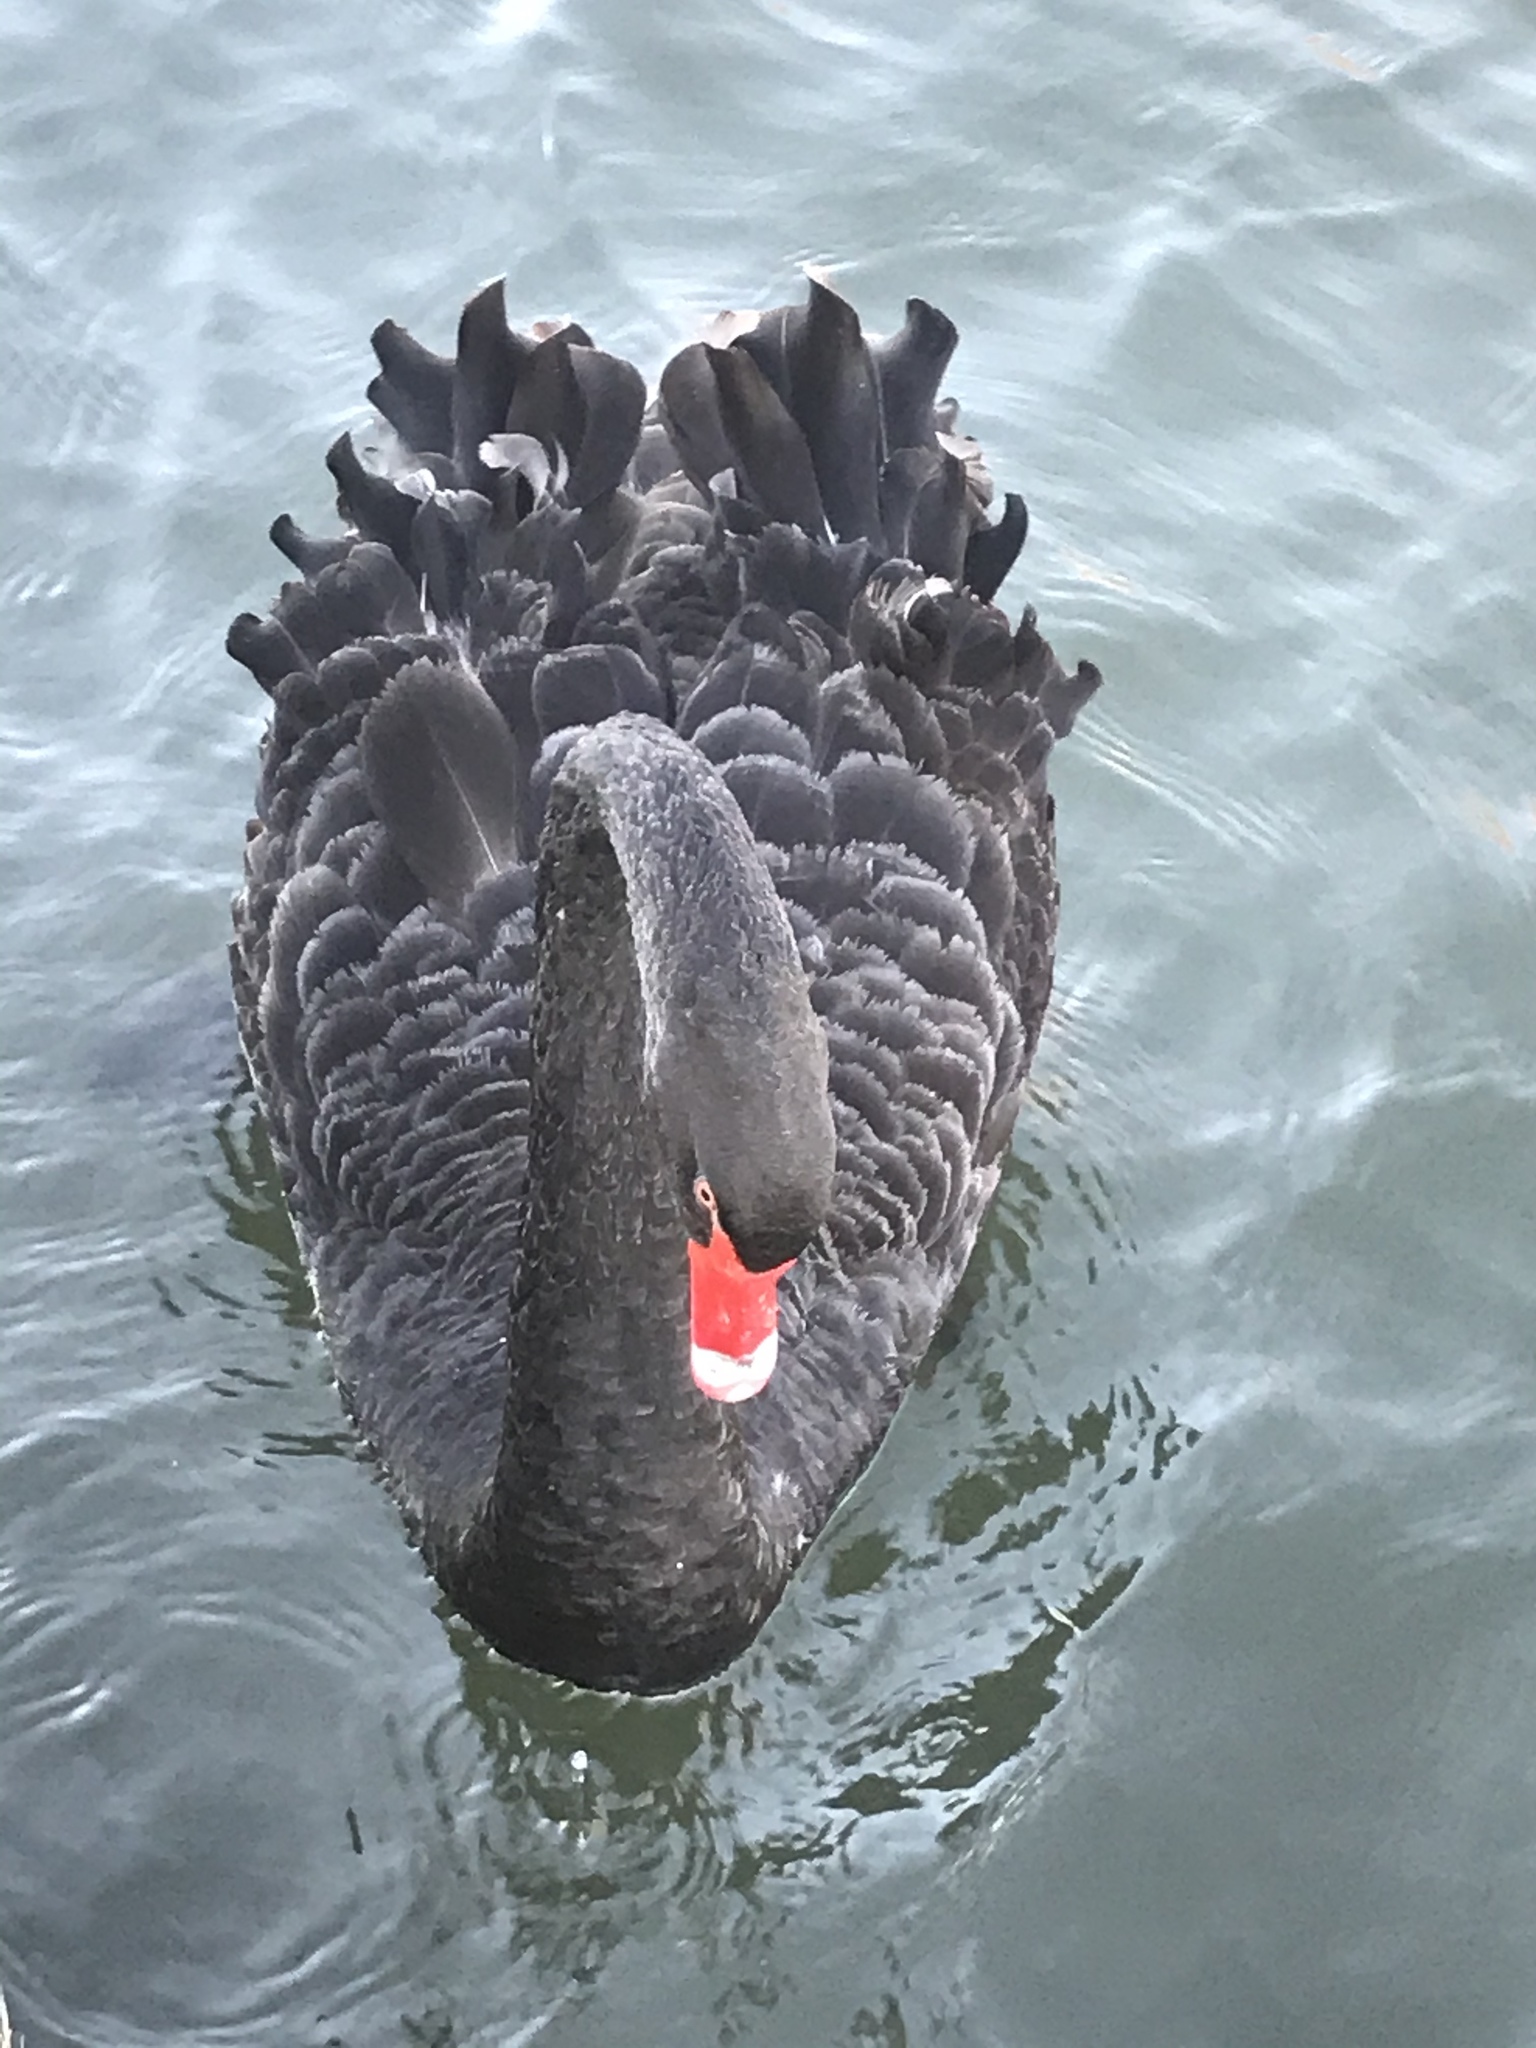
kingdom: Animalia
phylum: Chordata
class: Aves
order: Anseriformes
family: Anatidae
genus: Cygnus
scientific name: Cygnus atratus
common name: Black swan
